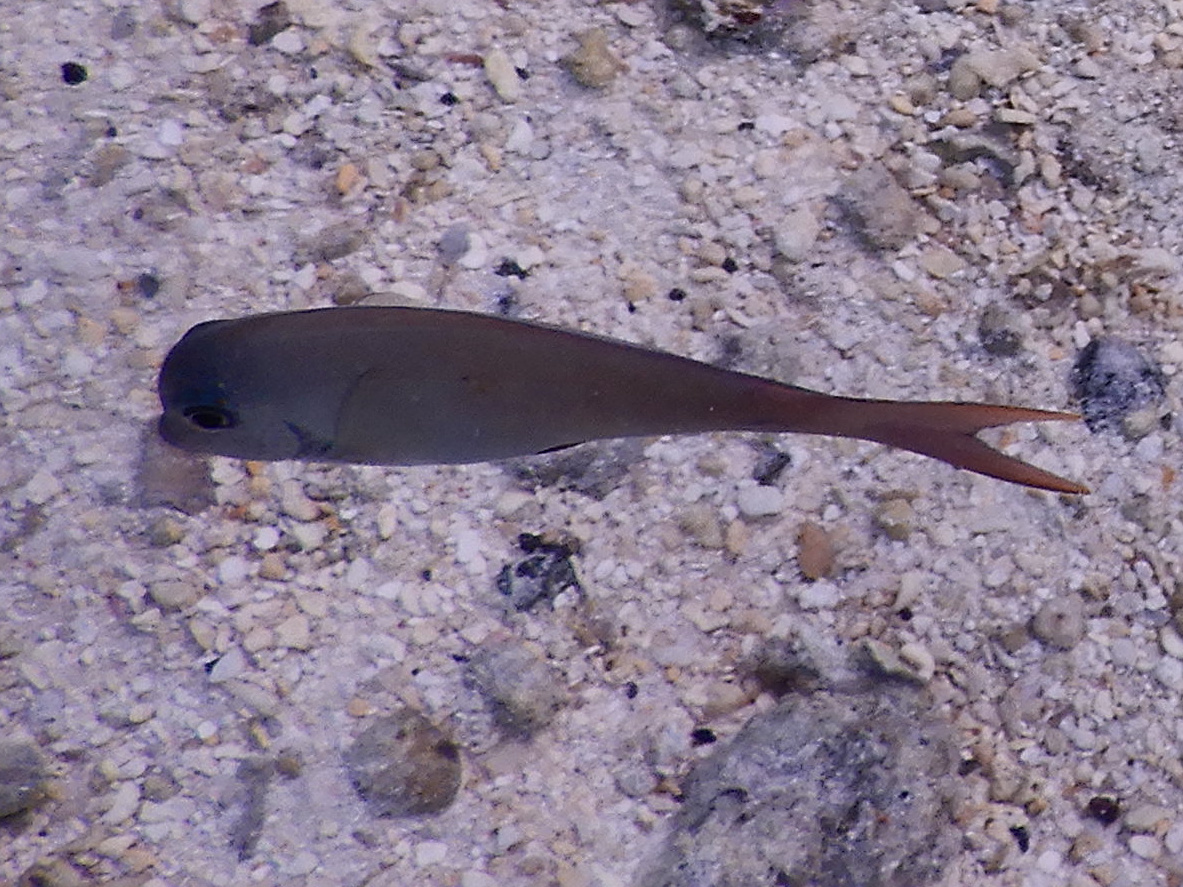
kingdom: Animalia
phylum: Chordata
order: Perciformes
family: Acanthuridae
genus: Acanthurus
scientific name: Acanthurus nigrofuscus
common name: Blackspot surgeonfish
